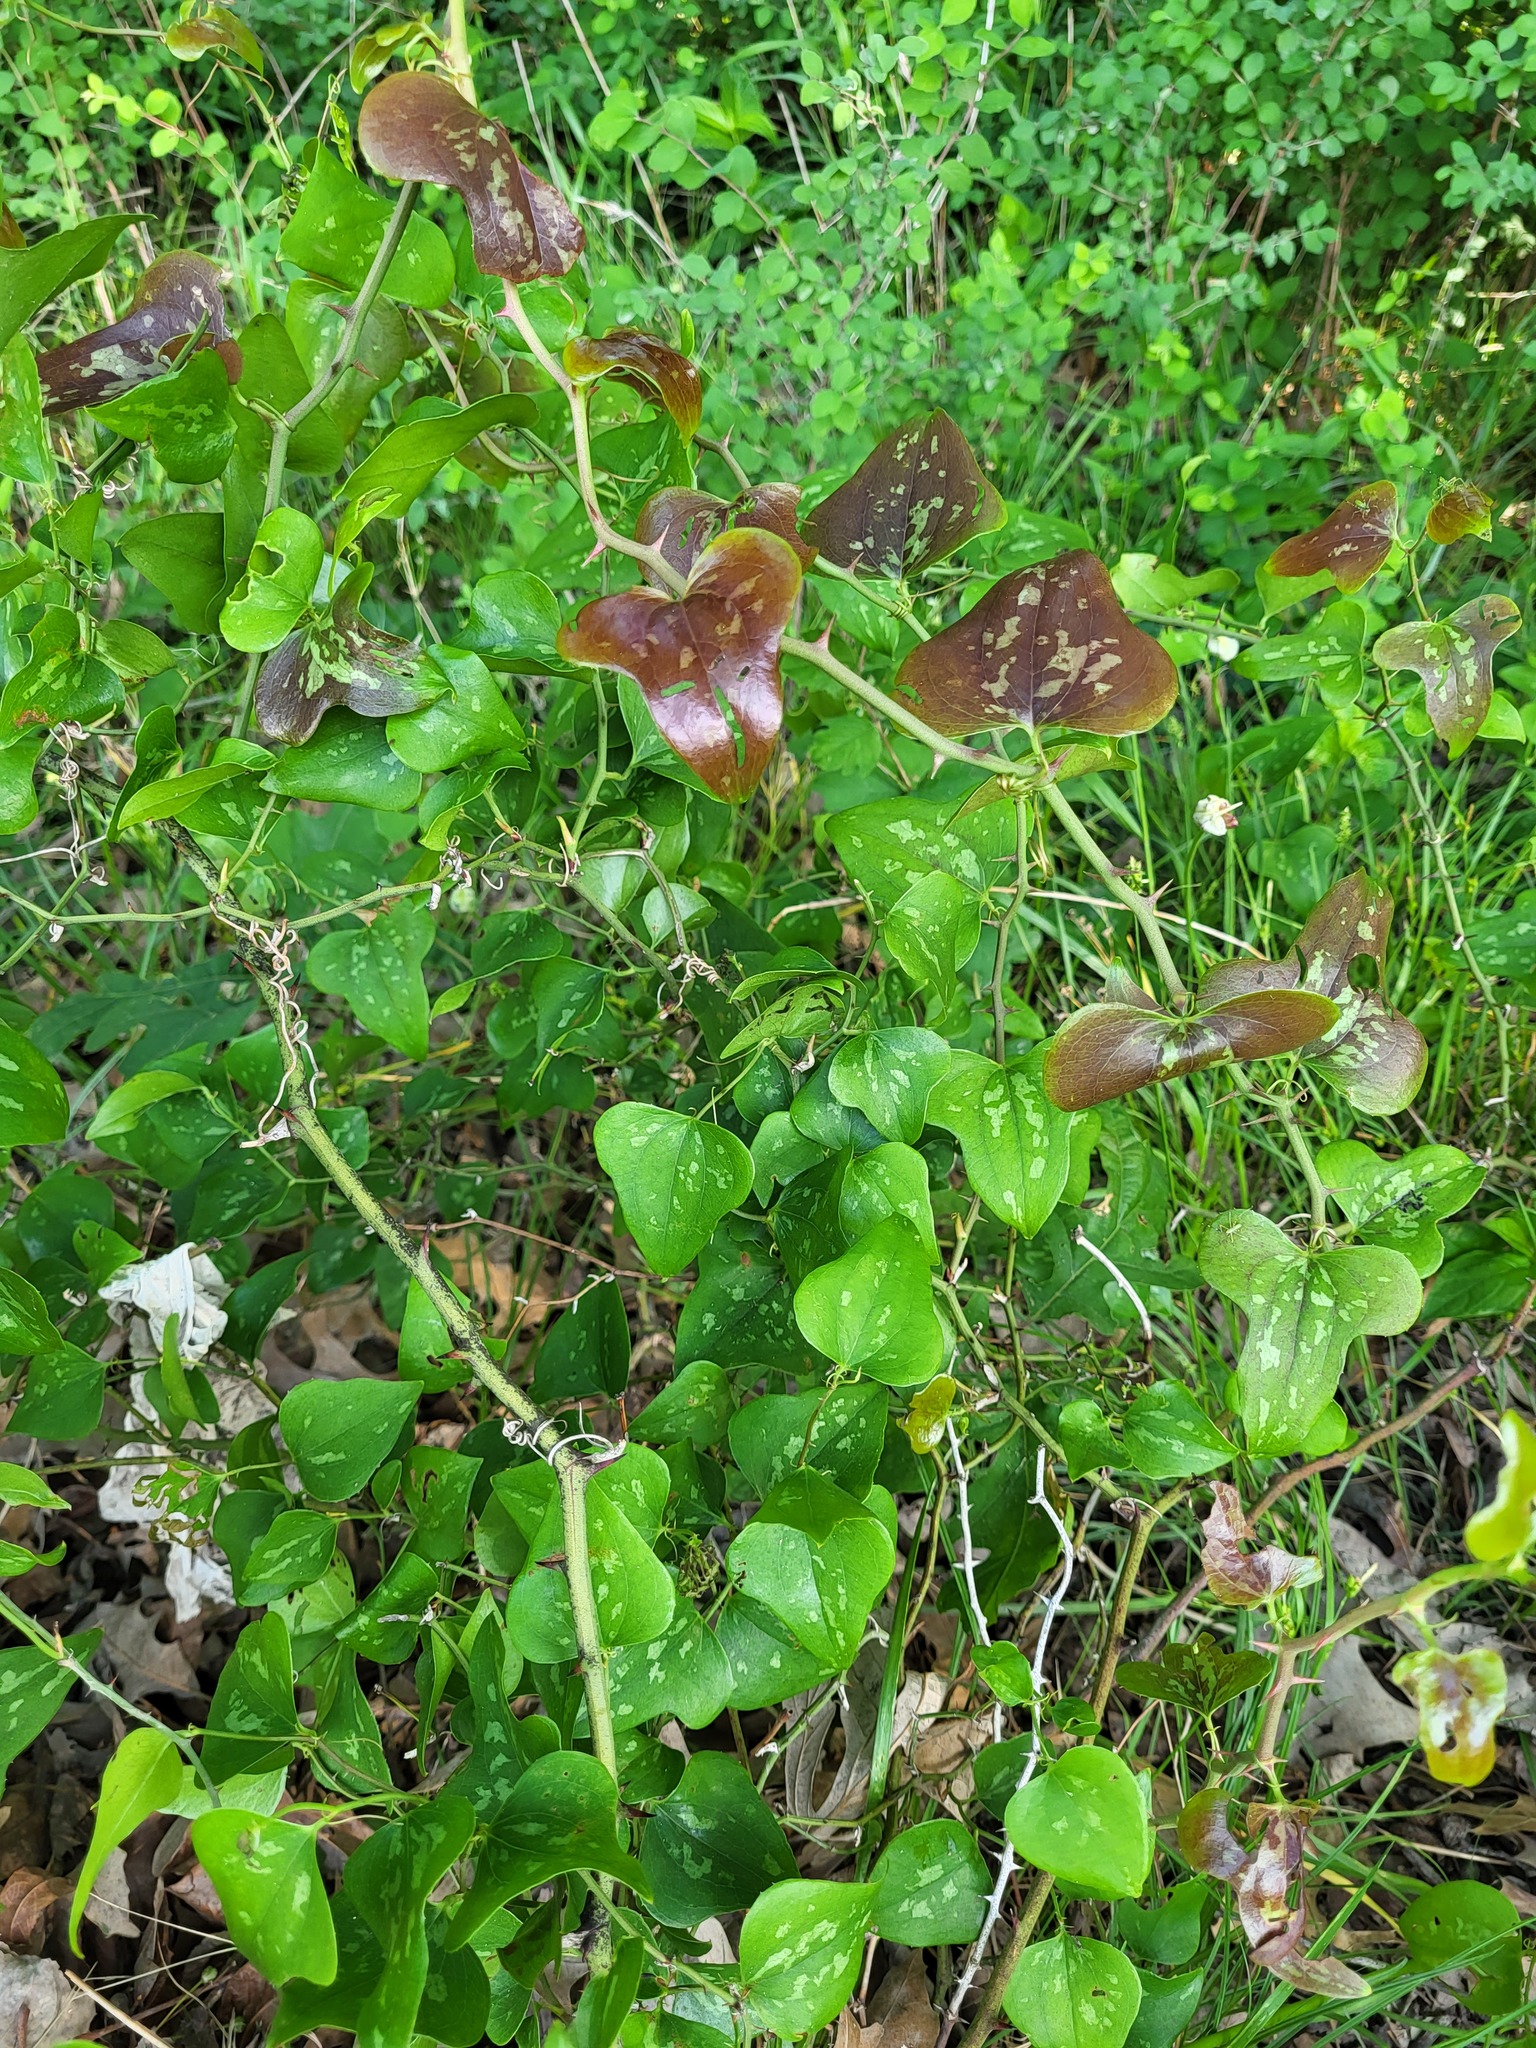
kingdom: Plantae
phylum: Tracheophyta
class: Liliopsida
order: Liliales
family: Smilacaceae
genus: Smilax
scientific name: Smilax bona-nox
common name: Catbrier
